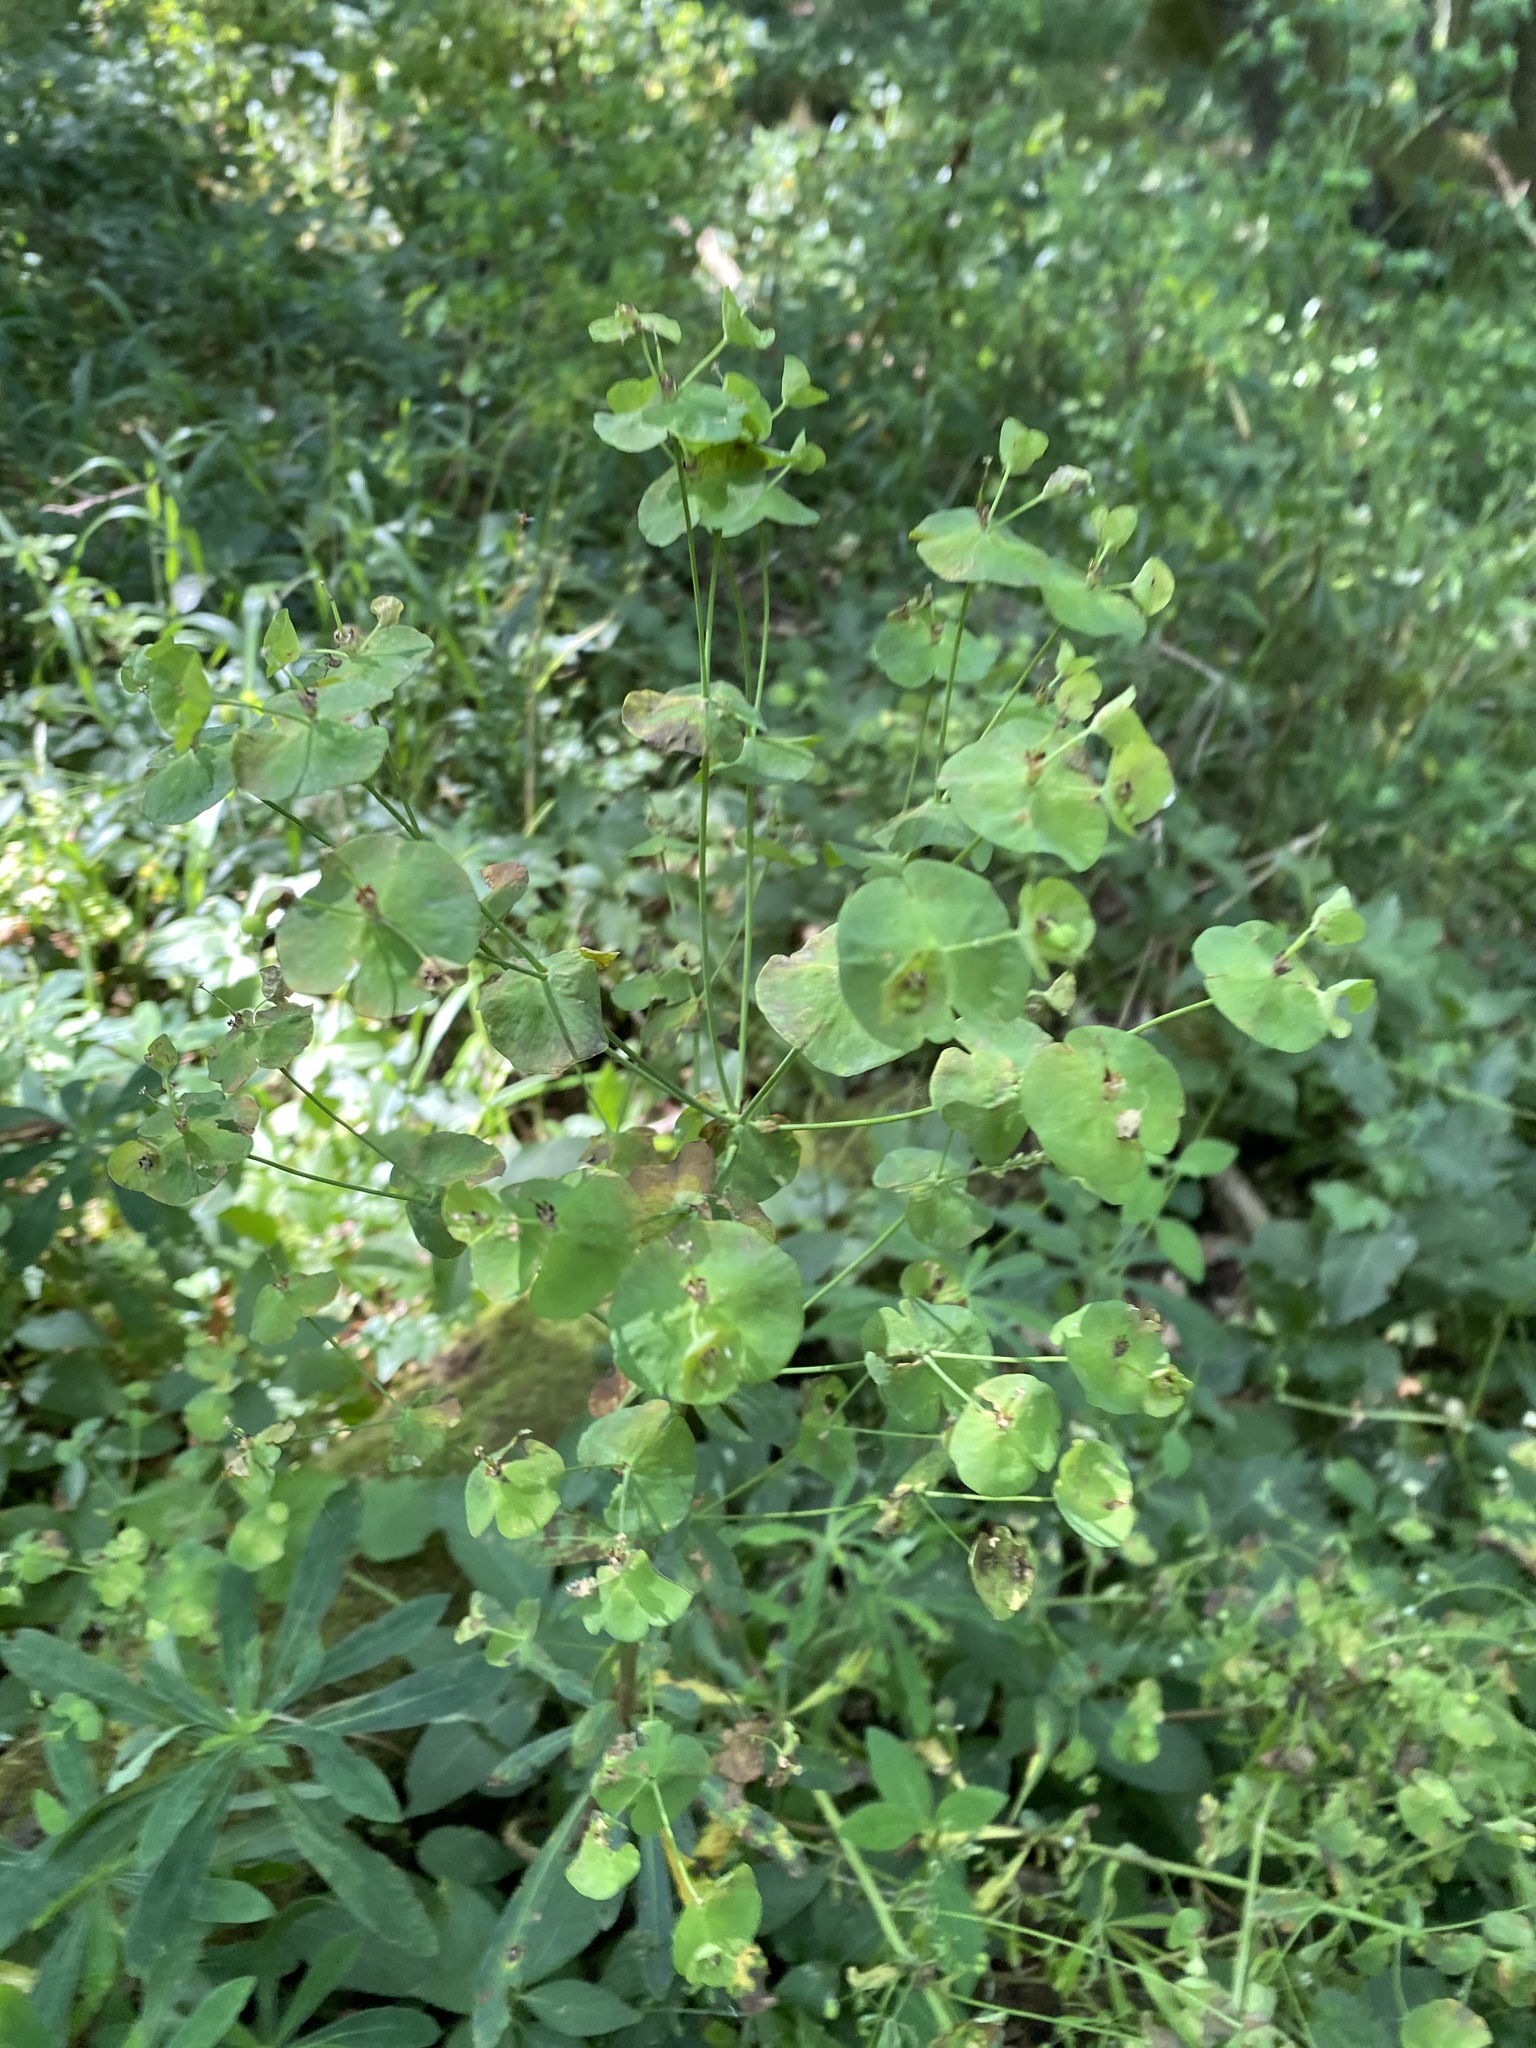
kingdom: Plantae
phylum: Tracheophyta
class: Magnoliopsida
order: Malpighiales
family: Euphorbiaceae
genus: Euphorbia
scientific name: Euphorbia amygdaloides
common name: Wood spurge
